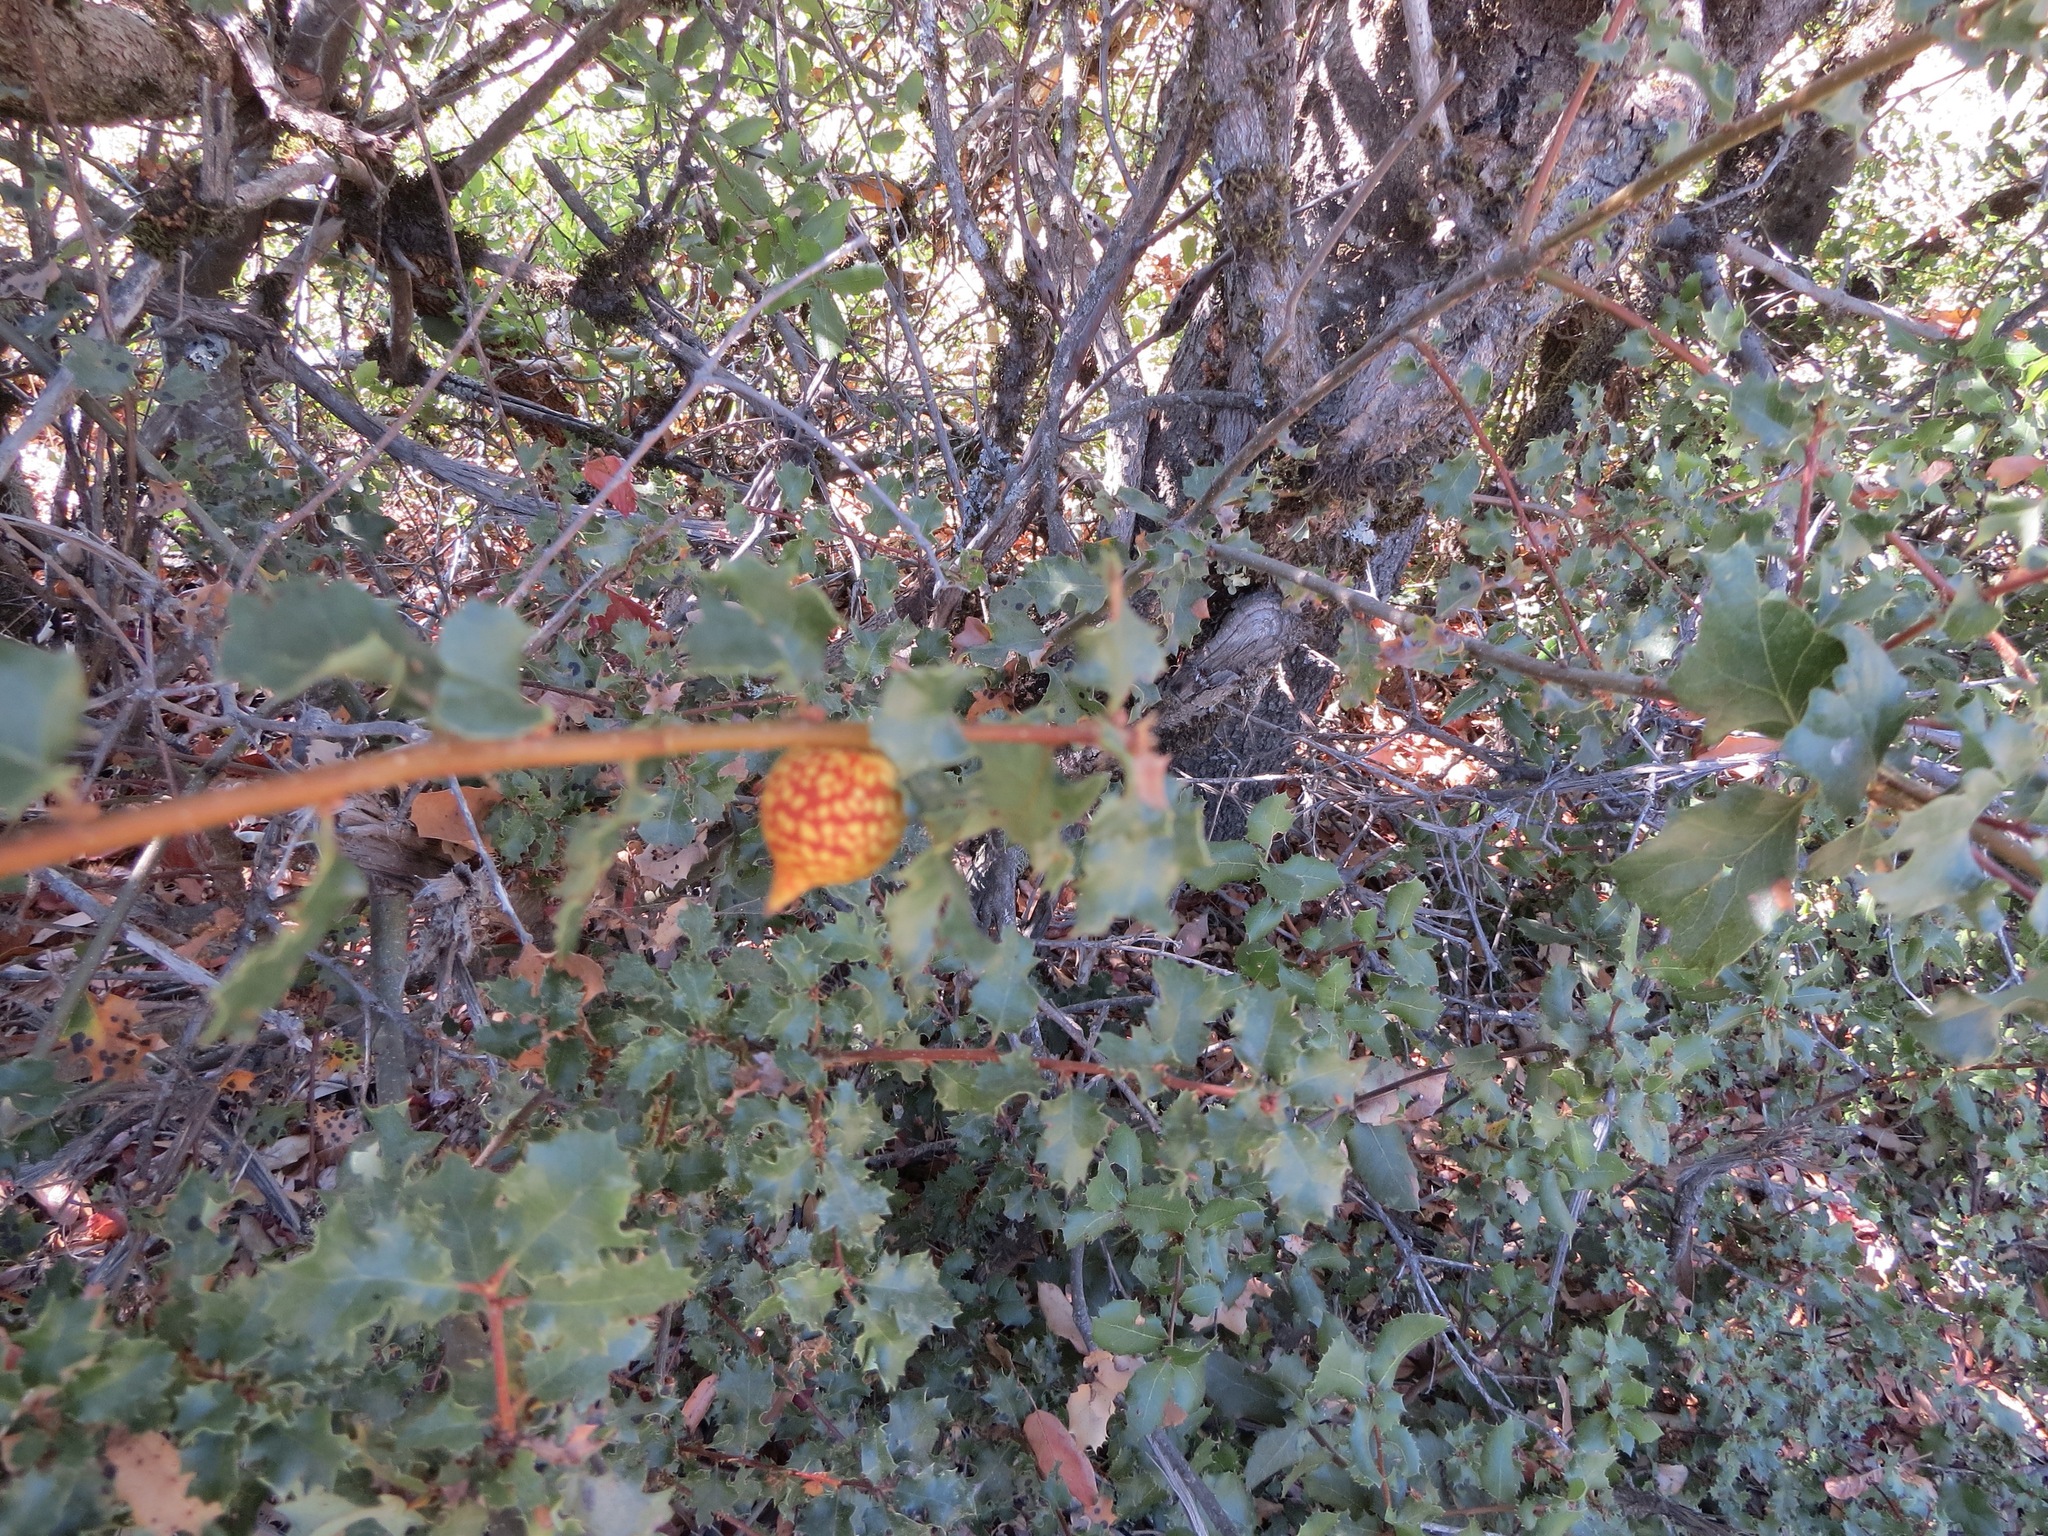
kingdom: Animalia
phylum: Arthropoda
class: Insecta
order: Hymenoptera
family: Cynipidae
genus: Burnettweldia
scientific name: Burnettweldia
